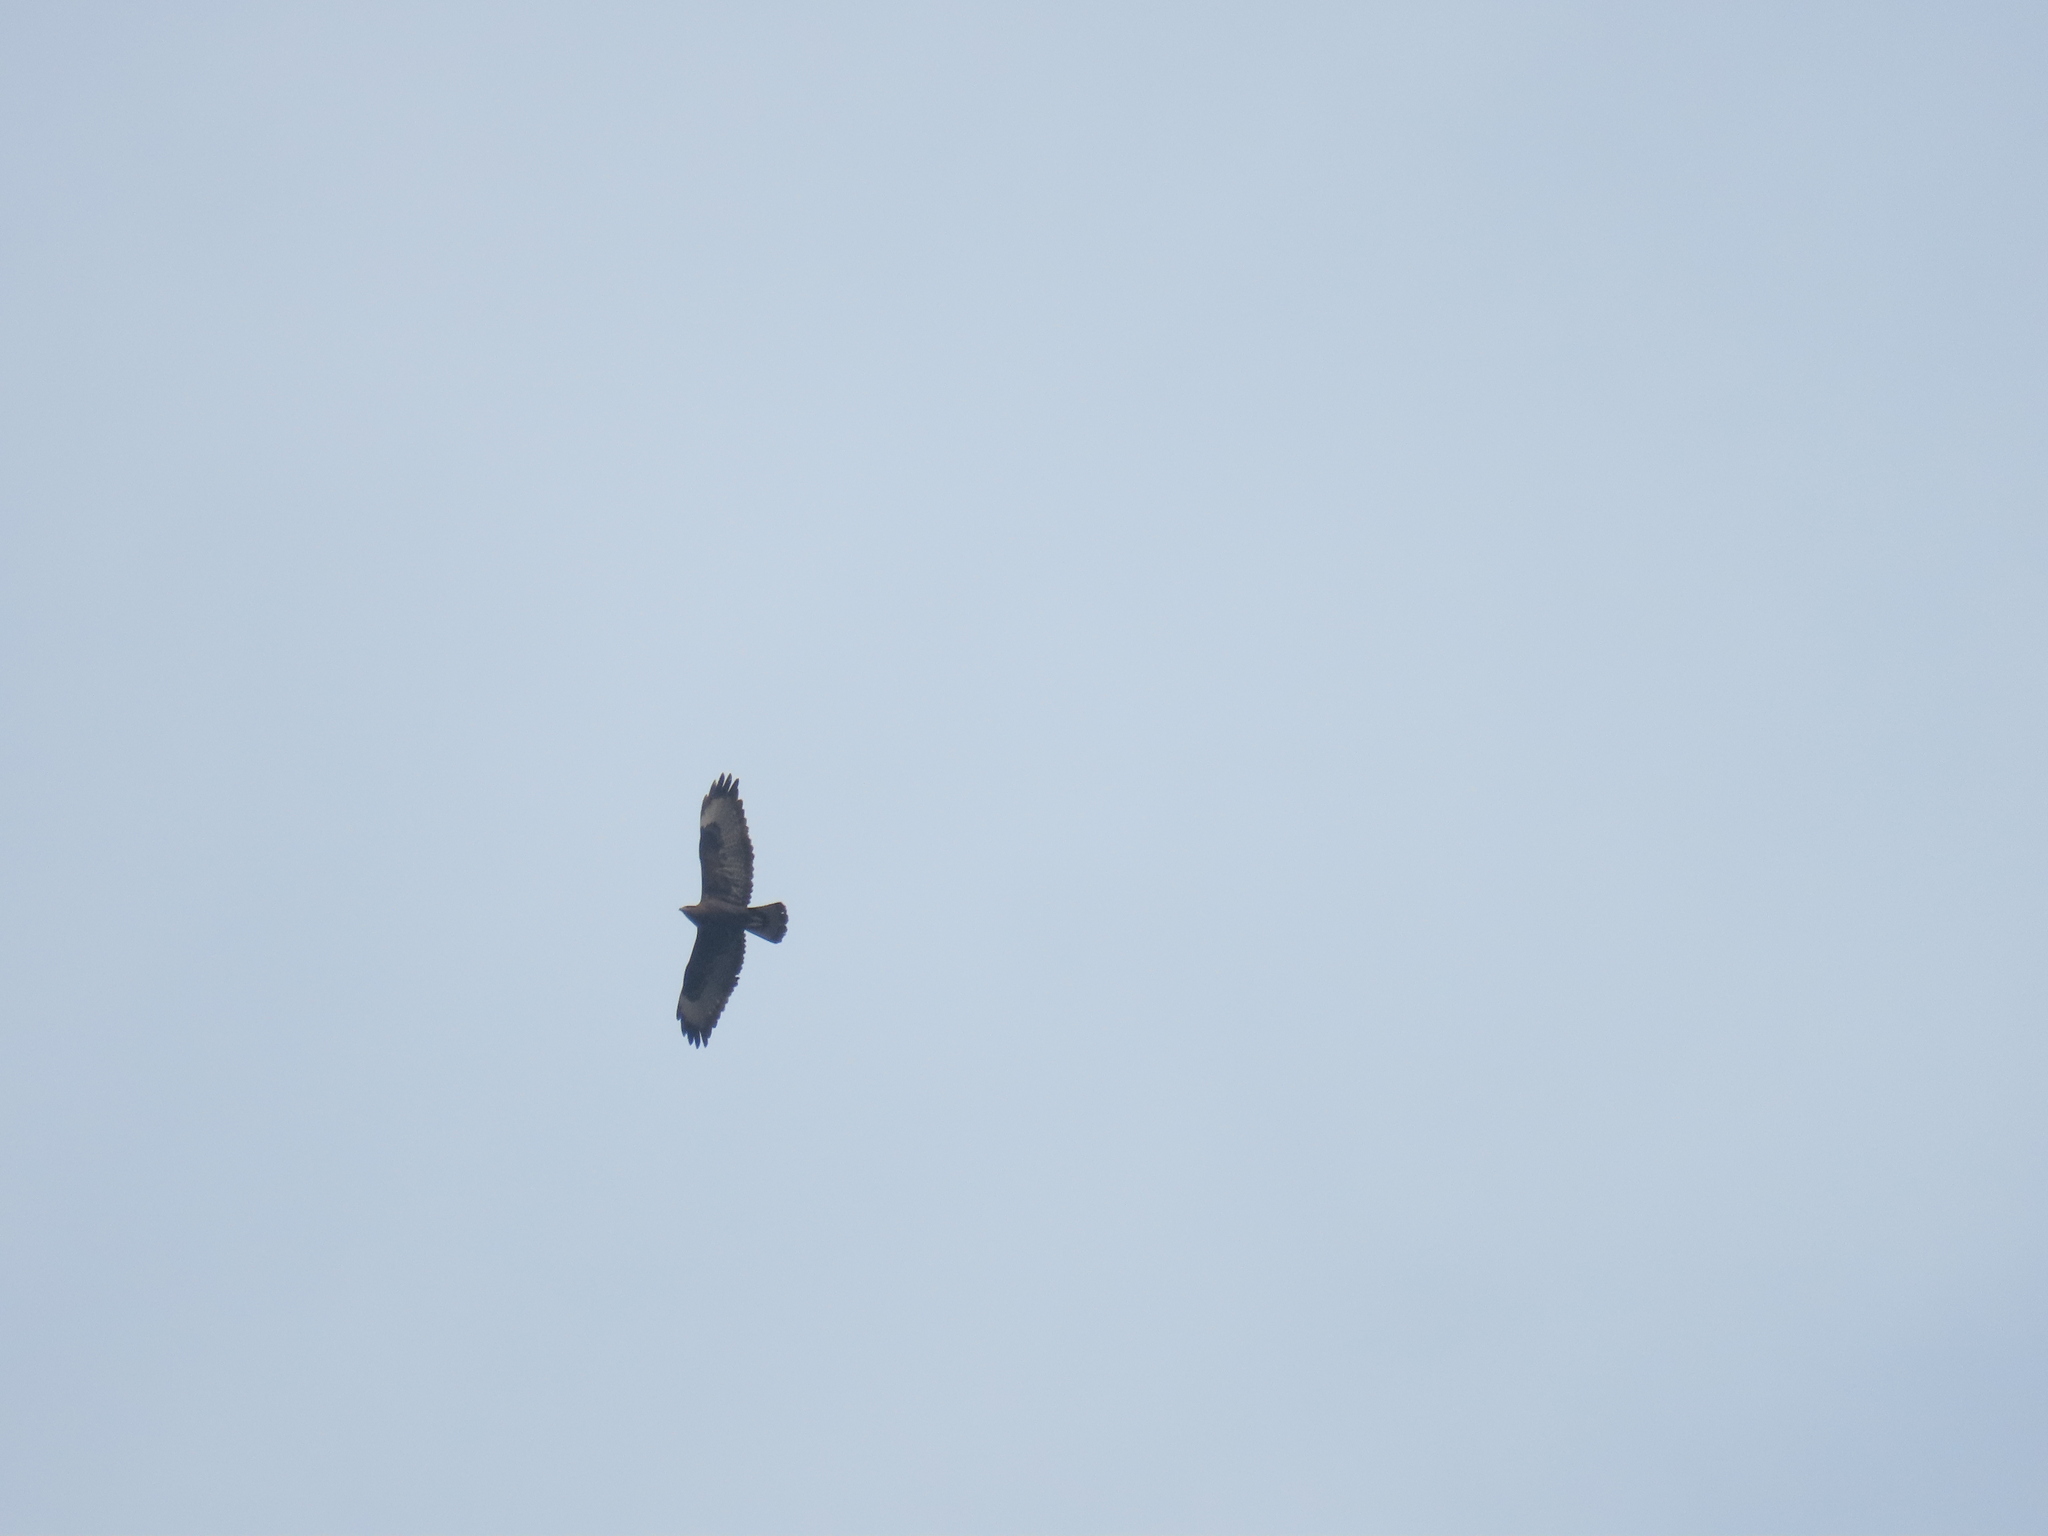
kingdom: Animalia
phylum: Chordata
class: Aves
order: Accipitriformes
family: Accipitridae
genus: Buteo
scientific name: Buteo rufinus
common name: Long-legged buzzard
